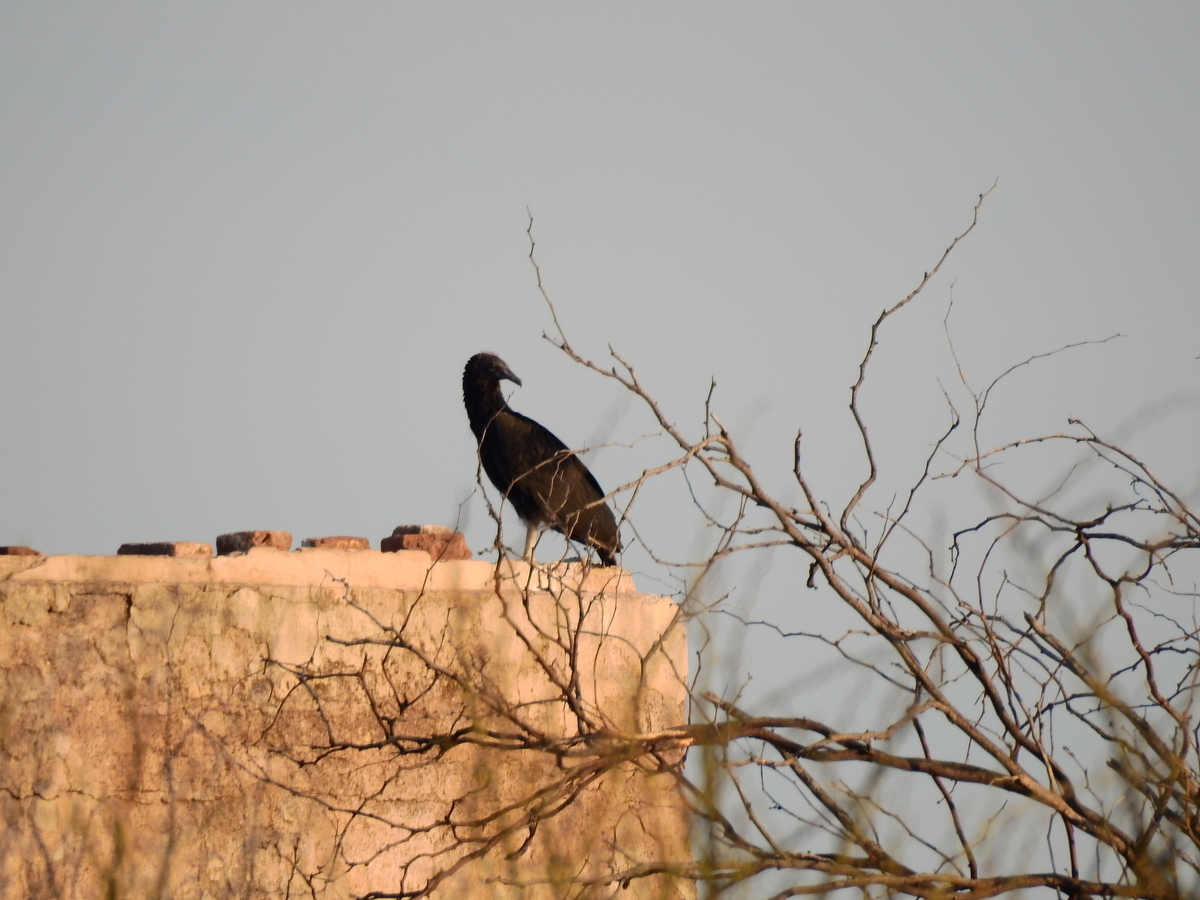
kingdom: Animalia
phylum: Chordata
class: Aves
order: Accipitriformes
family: Cathartidae
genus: Coragyps
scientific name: Coragyps atratus
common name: Black vulture
